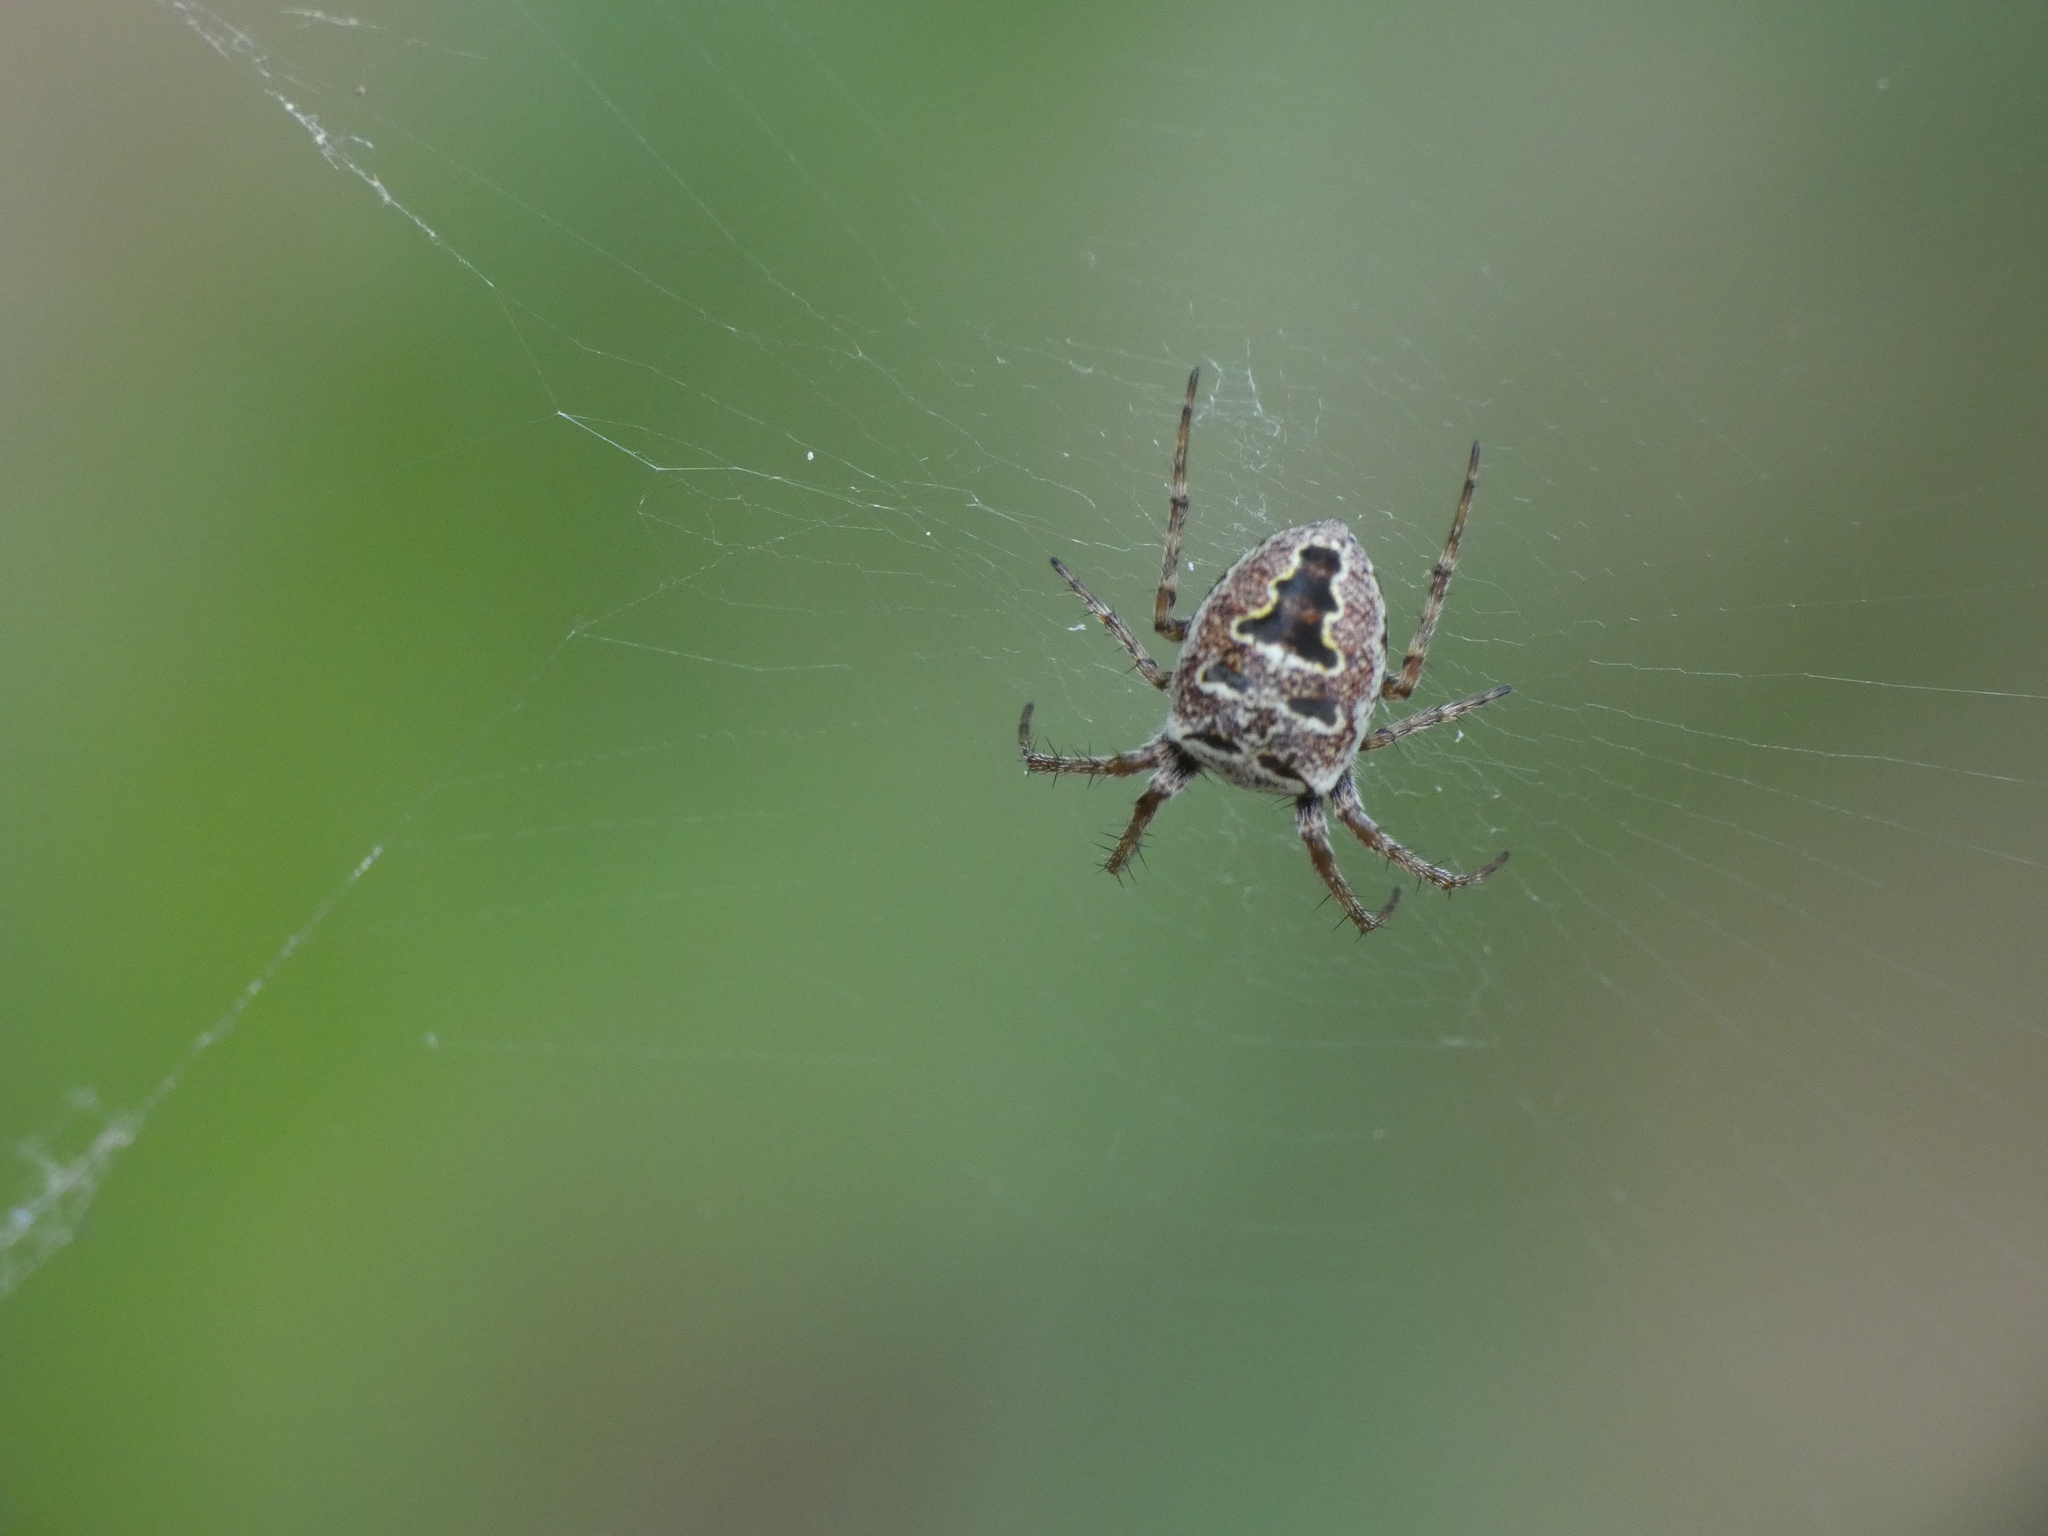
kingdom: Animalia
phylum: Arthropoda
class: Arachnida
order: Araneae
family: Araneidae
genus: Zilla
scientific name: Zilla diodia
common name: Zilla diodia
